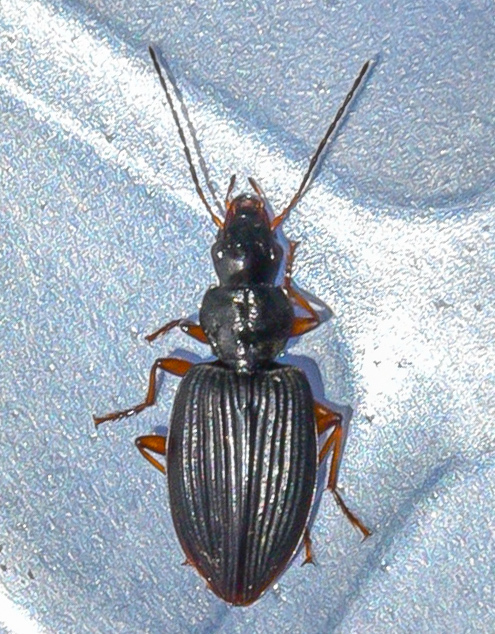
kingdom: Animalia
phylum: Arthropoda
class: Insecta
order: Coleoptera
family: Carabidae
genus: Blackburnia
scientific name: Blackburnia costata
